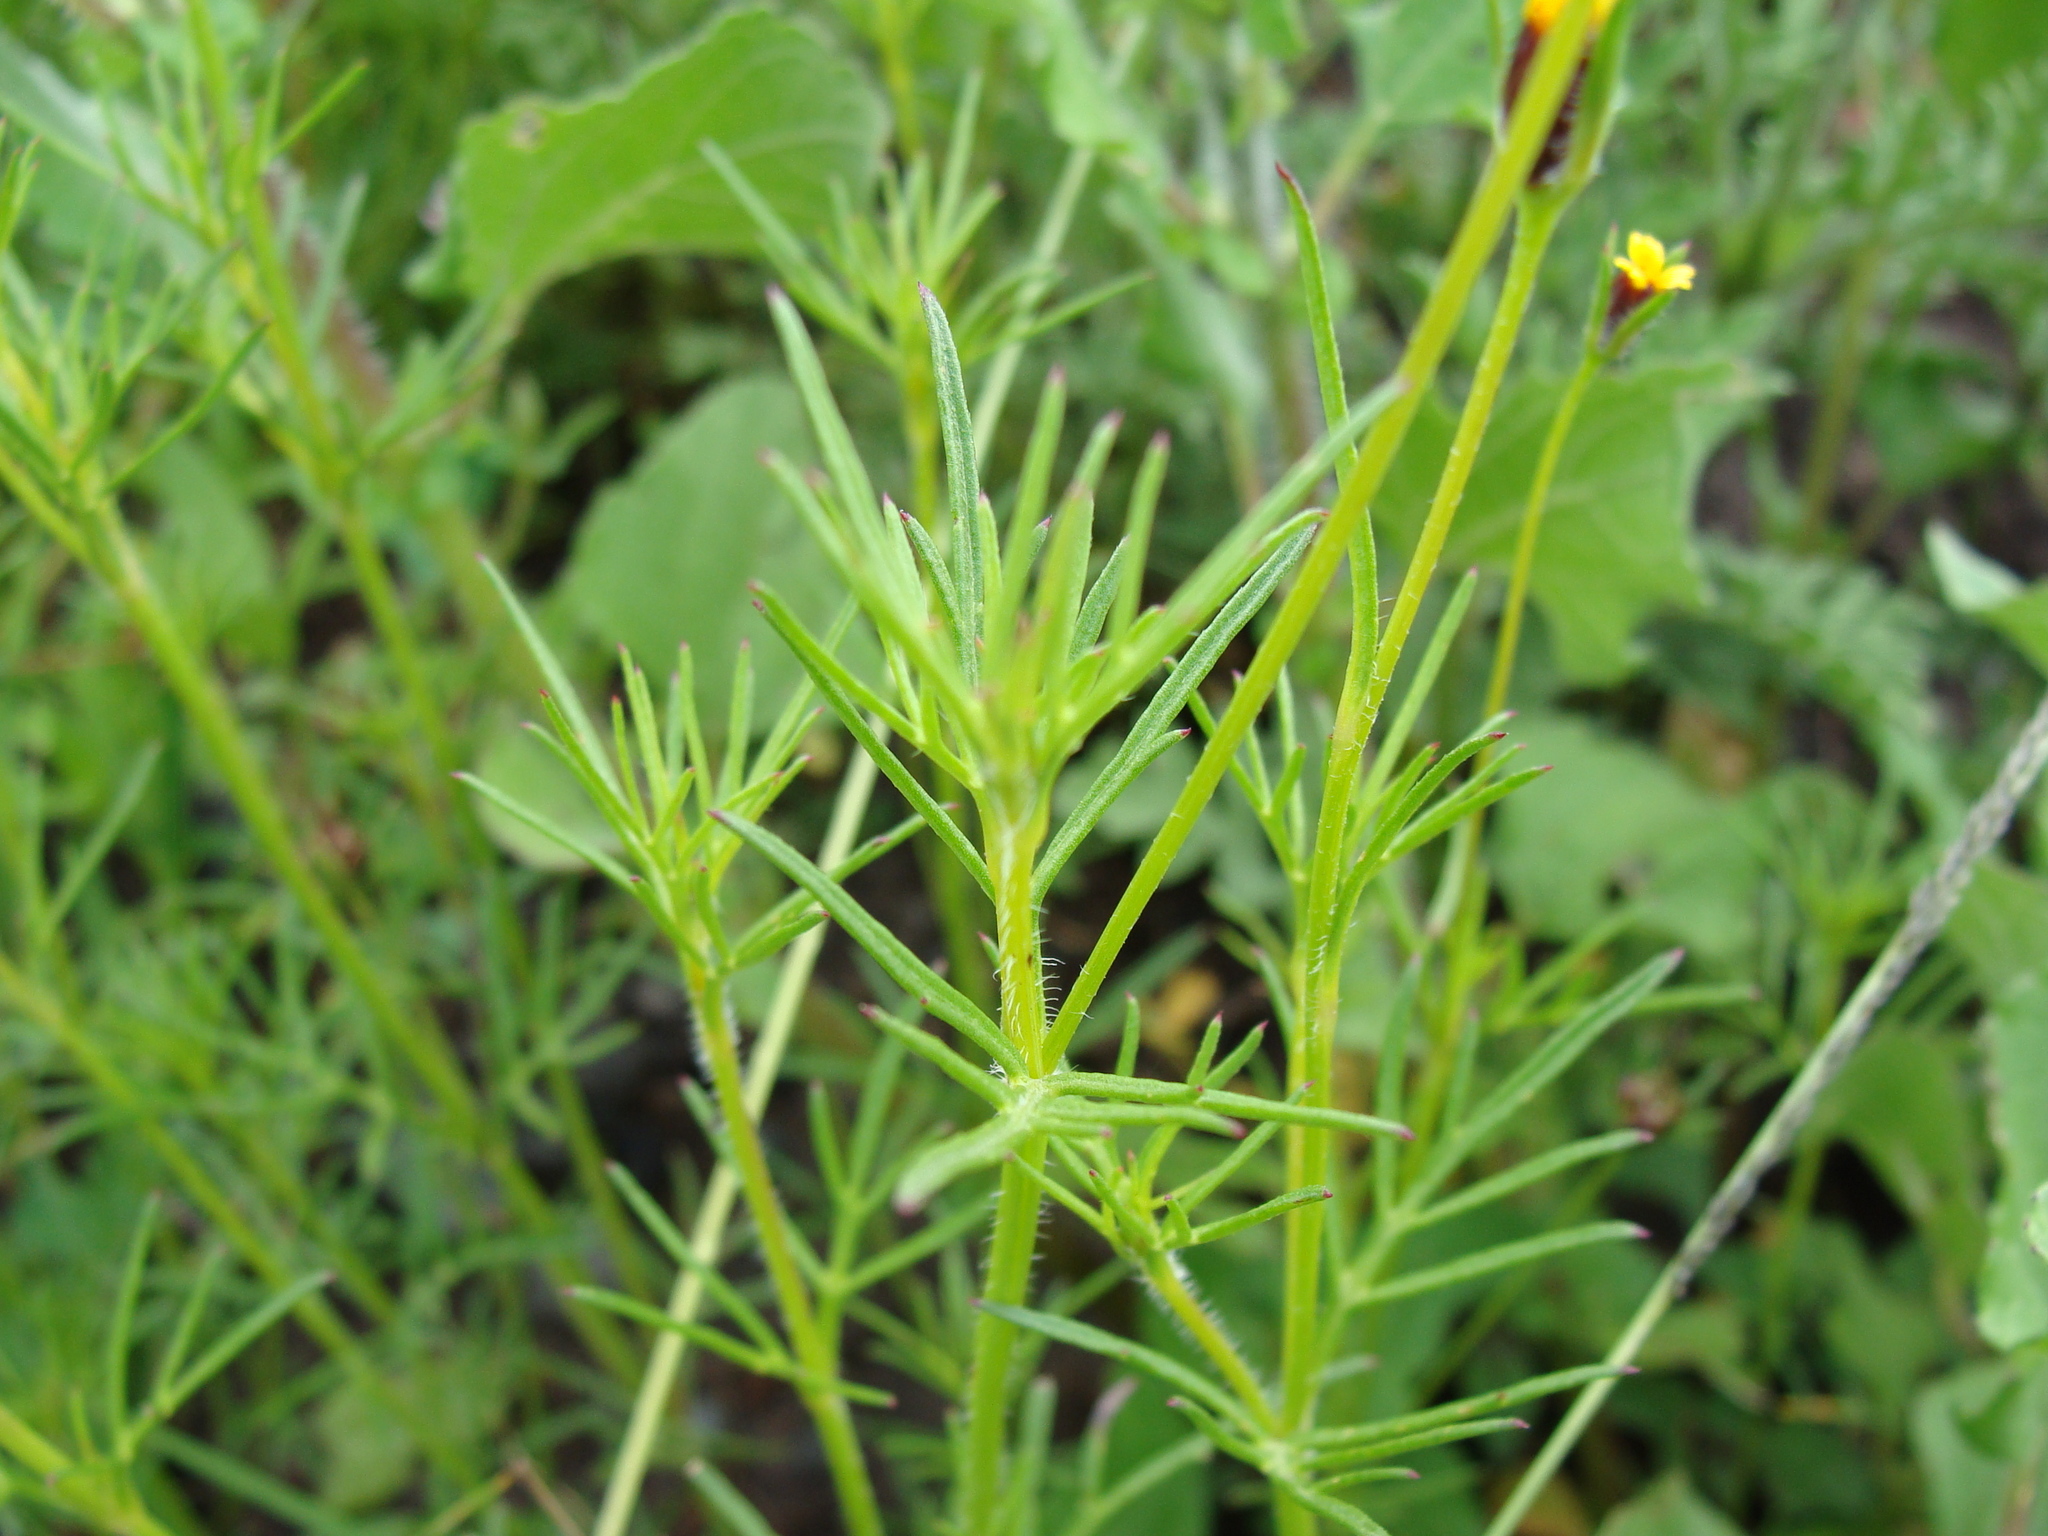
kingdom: Plantae
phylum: Tracheophyta
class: Magnoliopsida
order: Asterales
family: Asteraceae
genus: Heterosperma
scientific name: Heterosperma pinnatum
